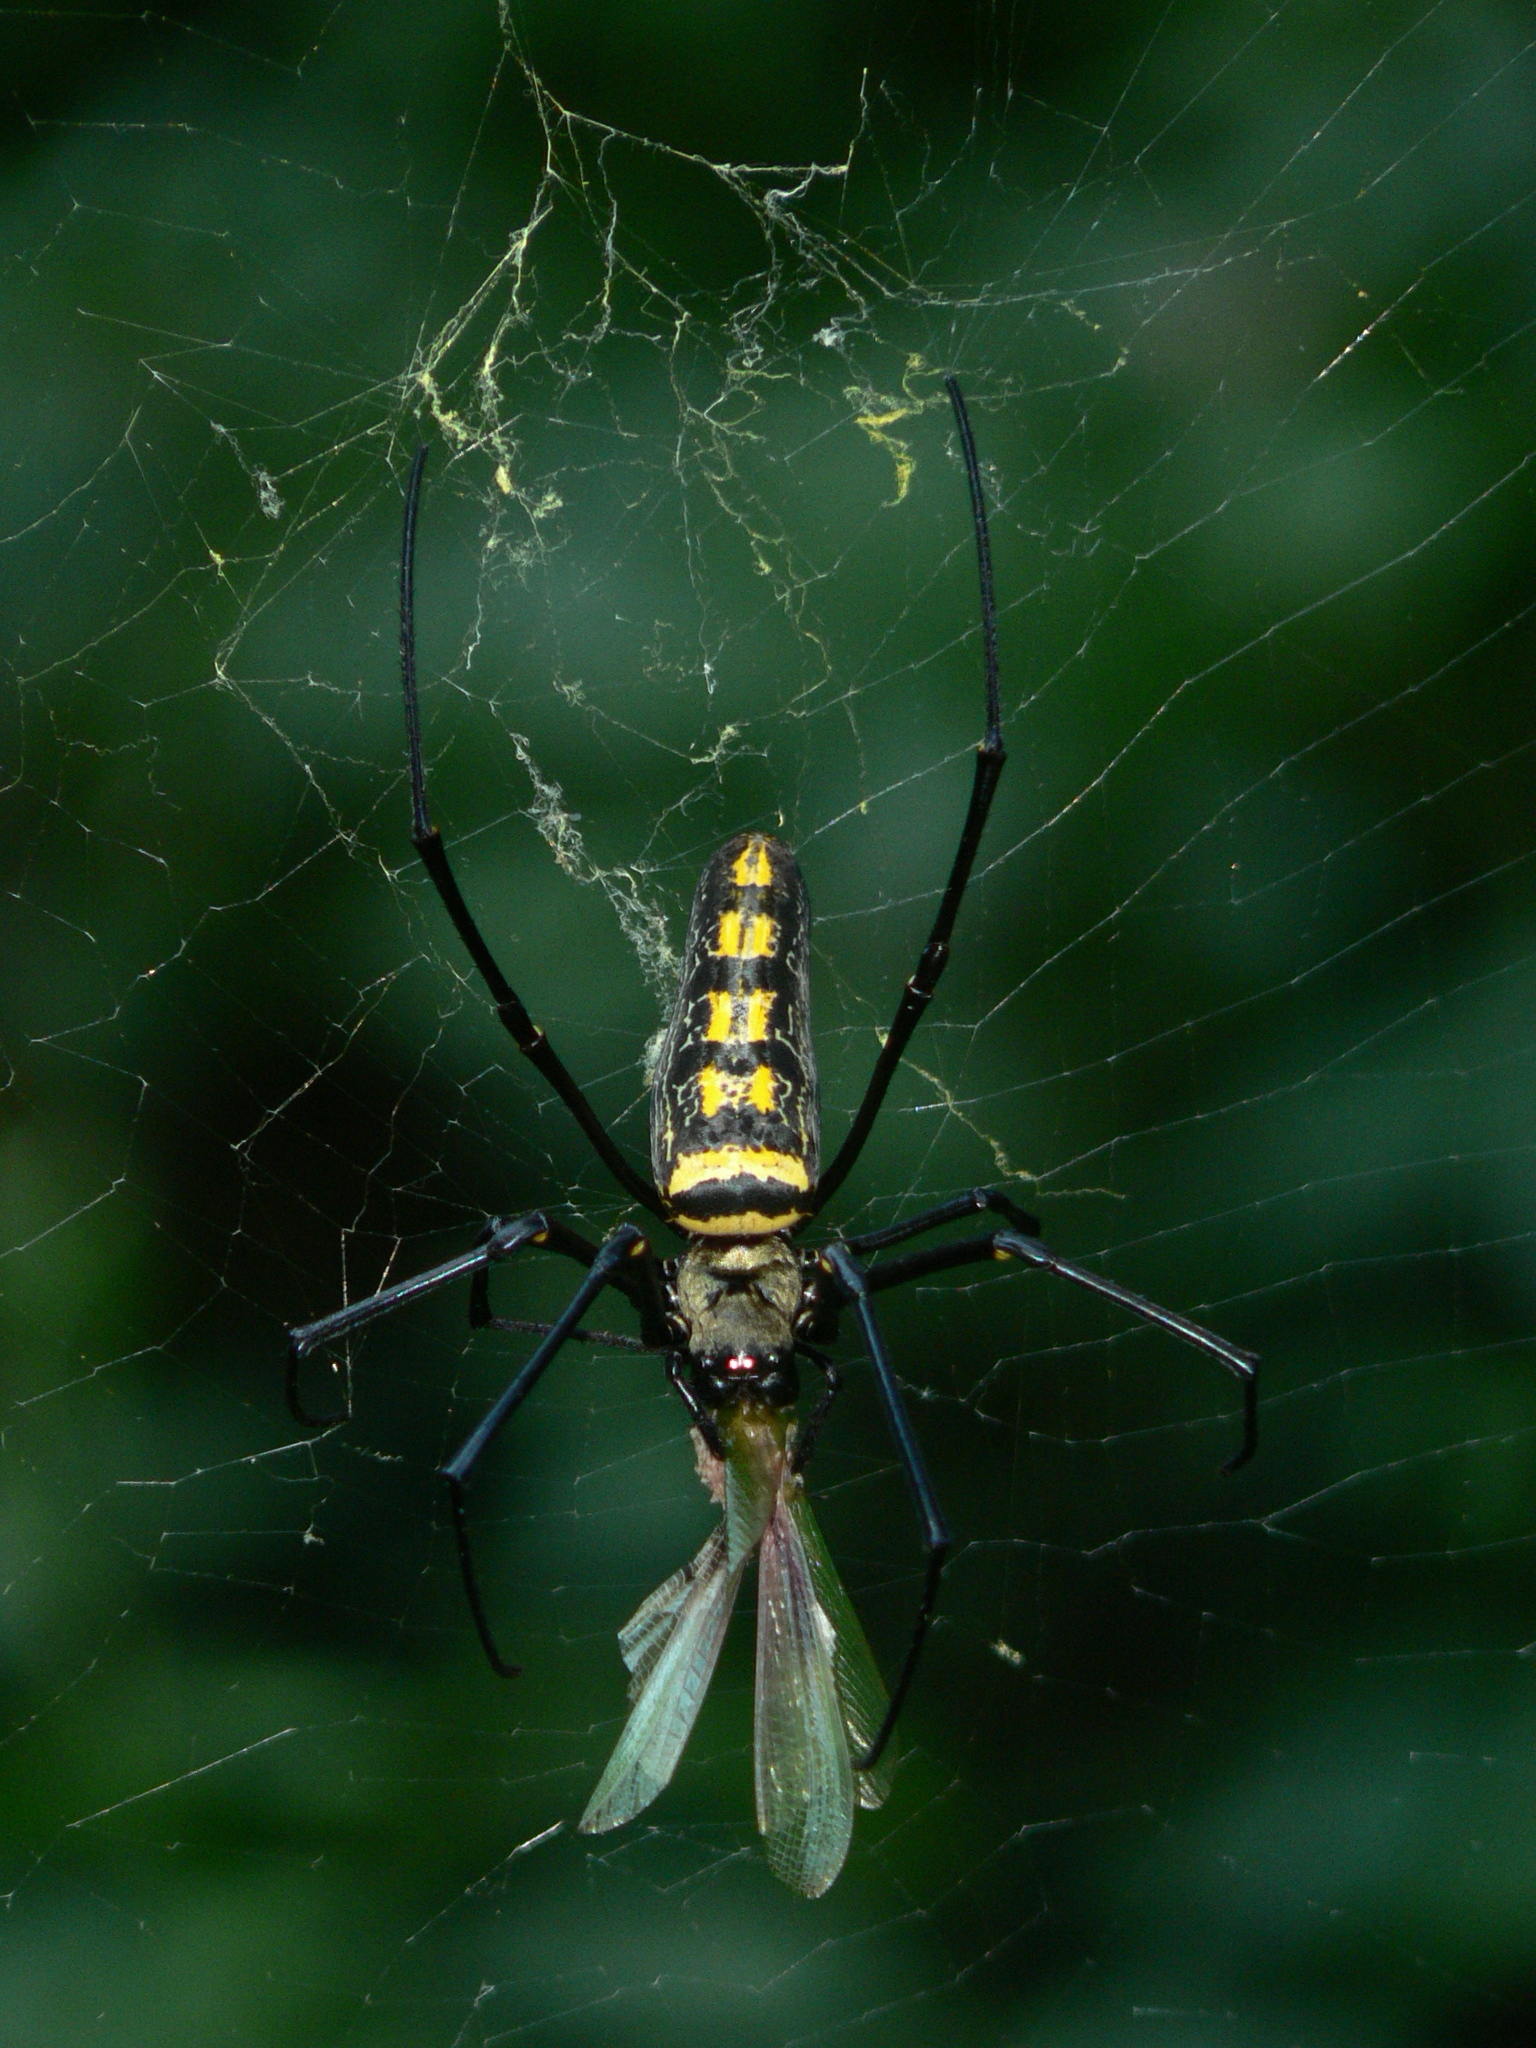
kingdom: Animalia
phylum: Arthropoda
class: Arachnida
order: Araneae
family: Araneidae
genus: Nephila
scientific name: Nephila pilipes
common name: Giant golden orb weaver
